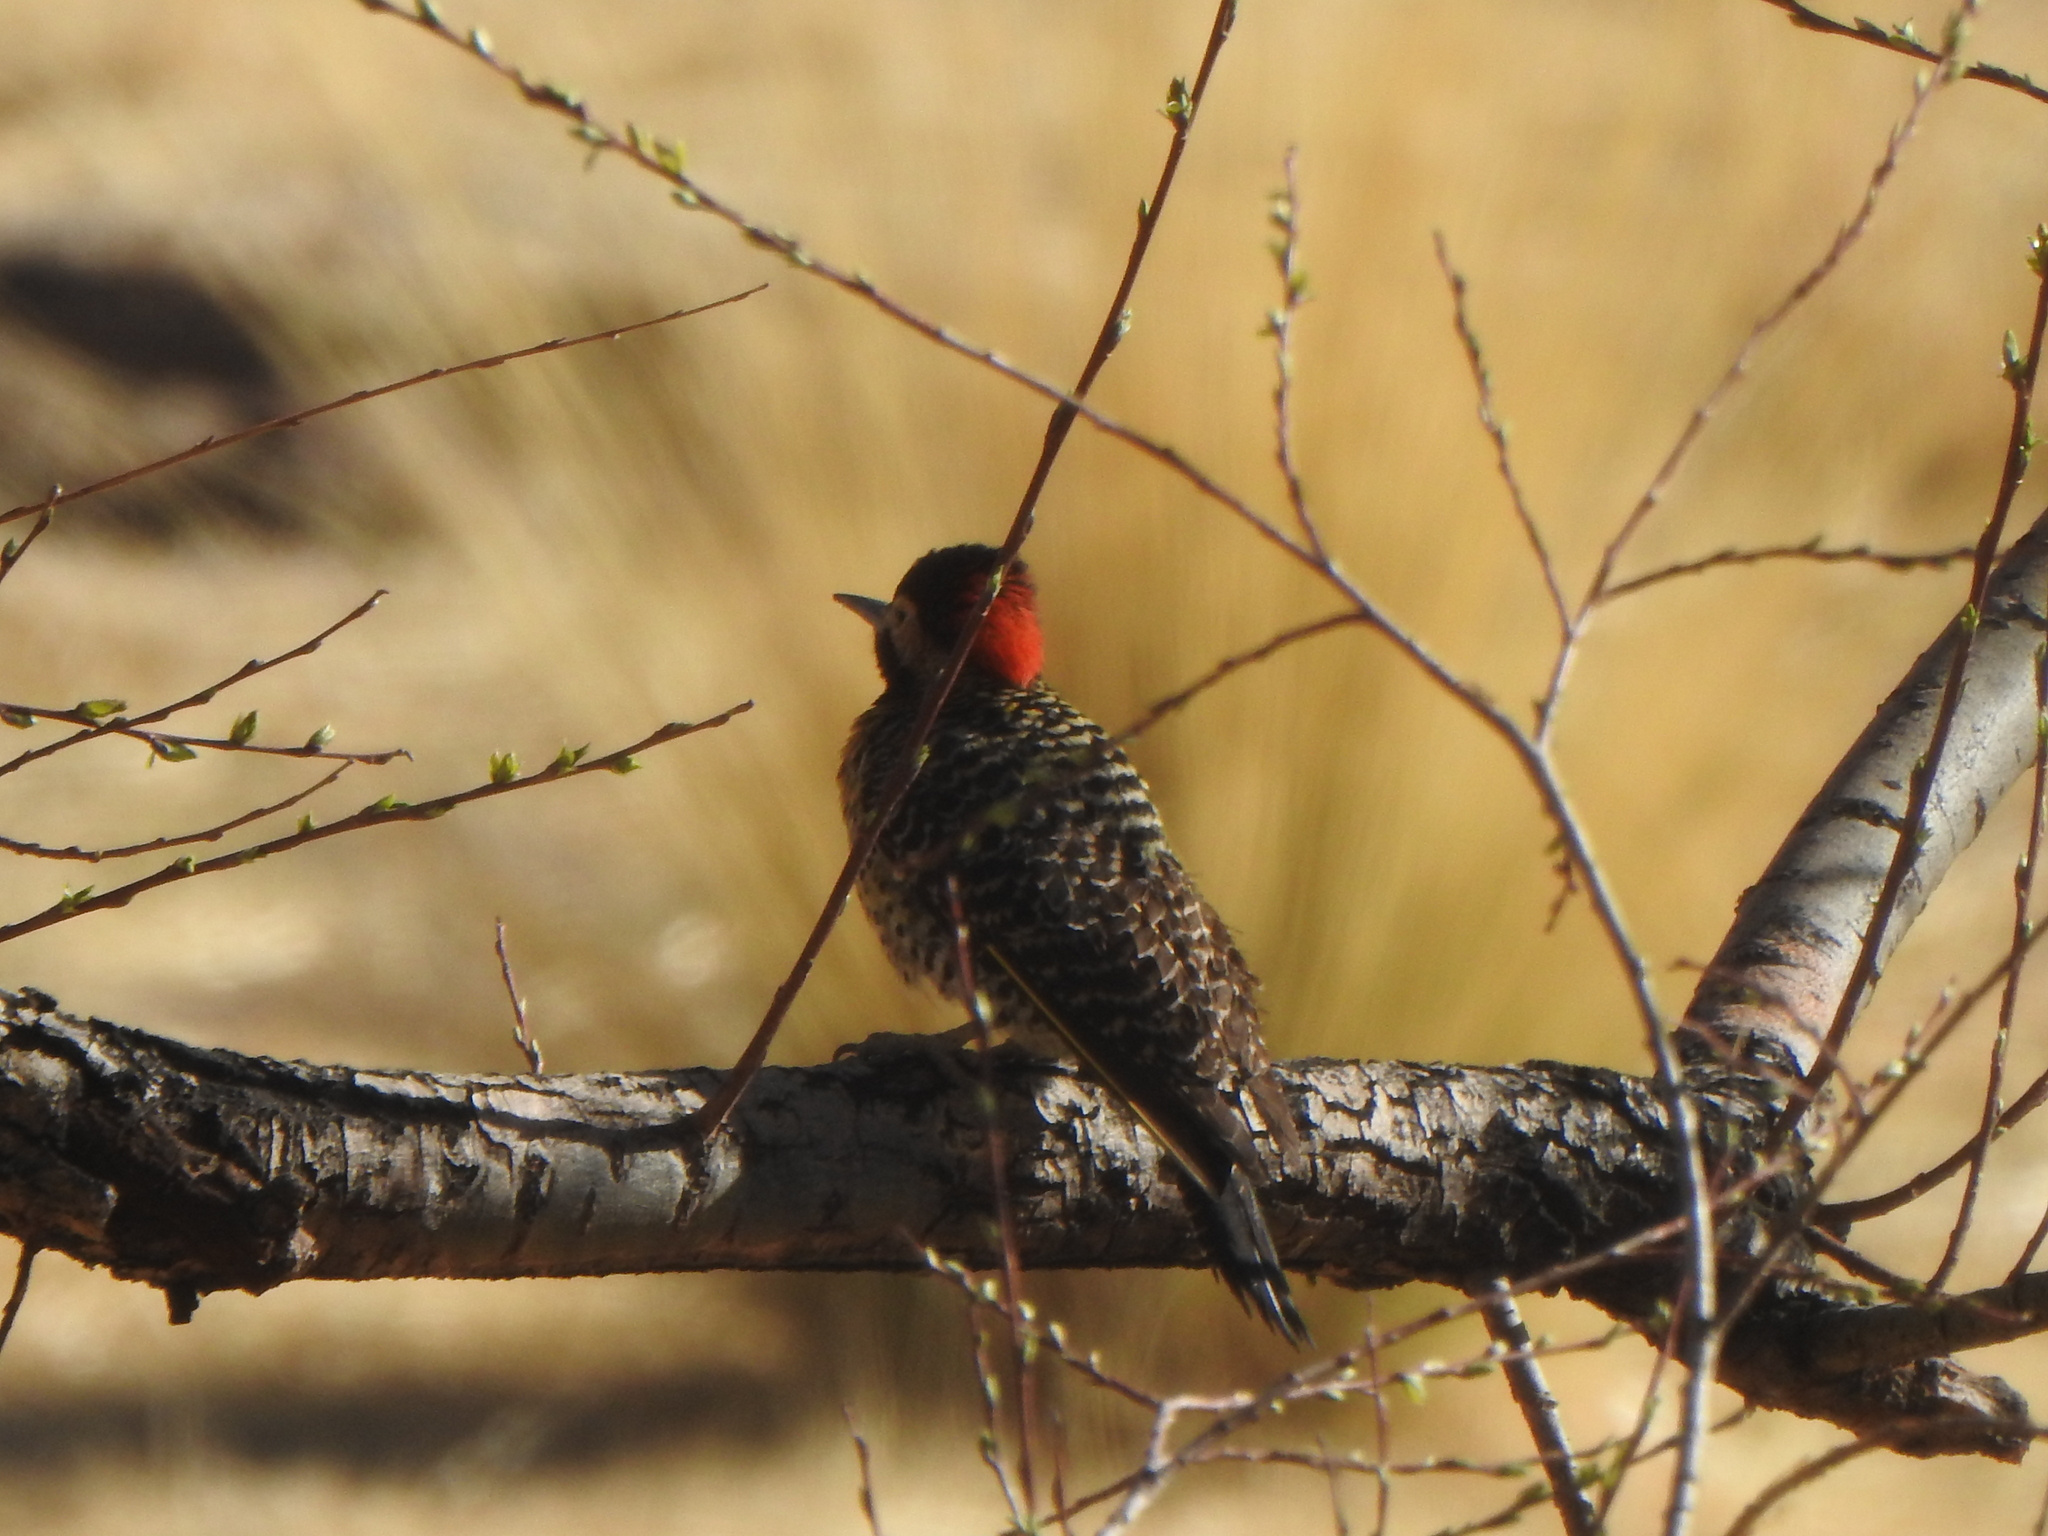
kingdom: Animalia
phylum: Chordata
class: Aves
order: Piciformes
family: Picidae
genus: Colaptes
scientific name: Colaptes melanochloros
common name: Green-barred woodpecker
